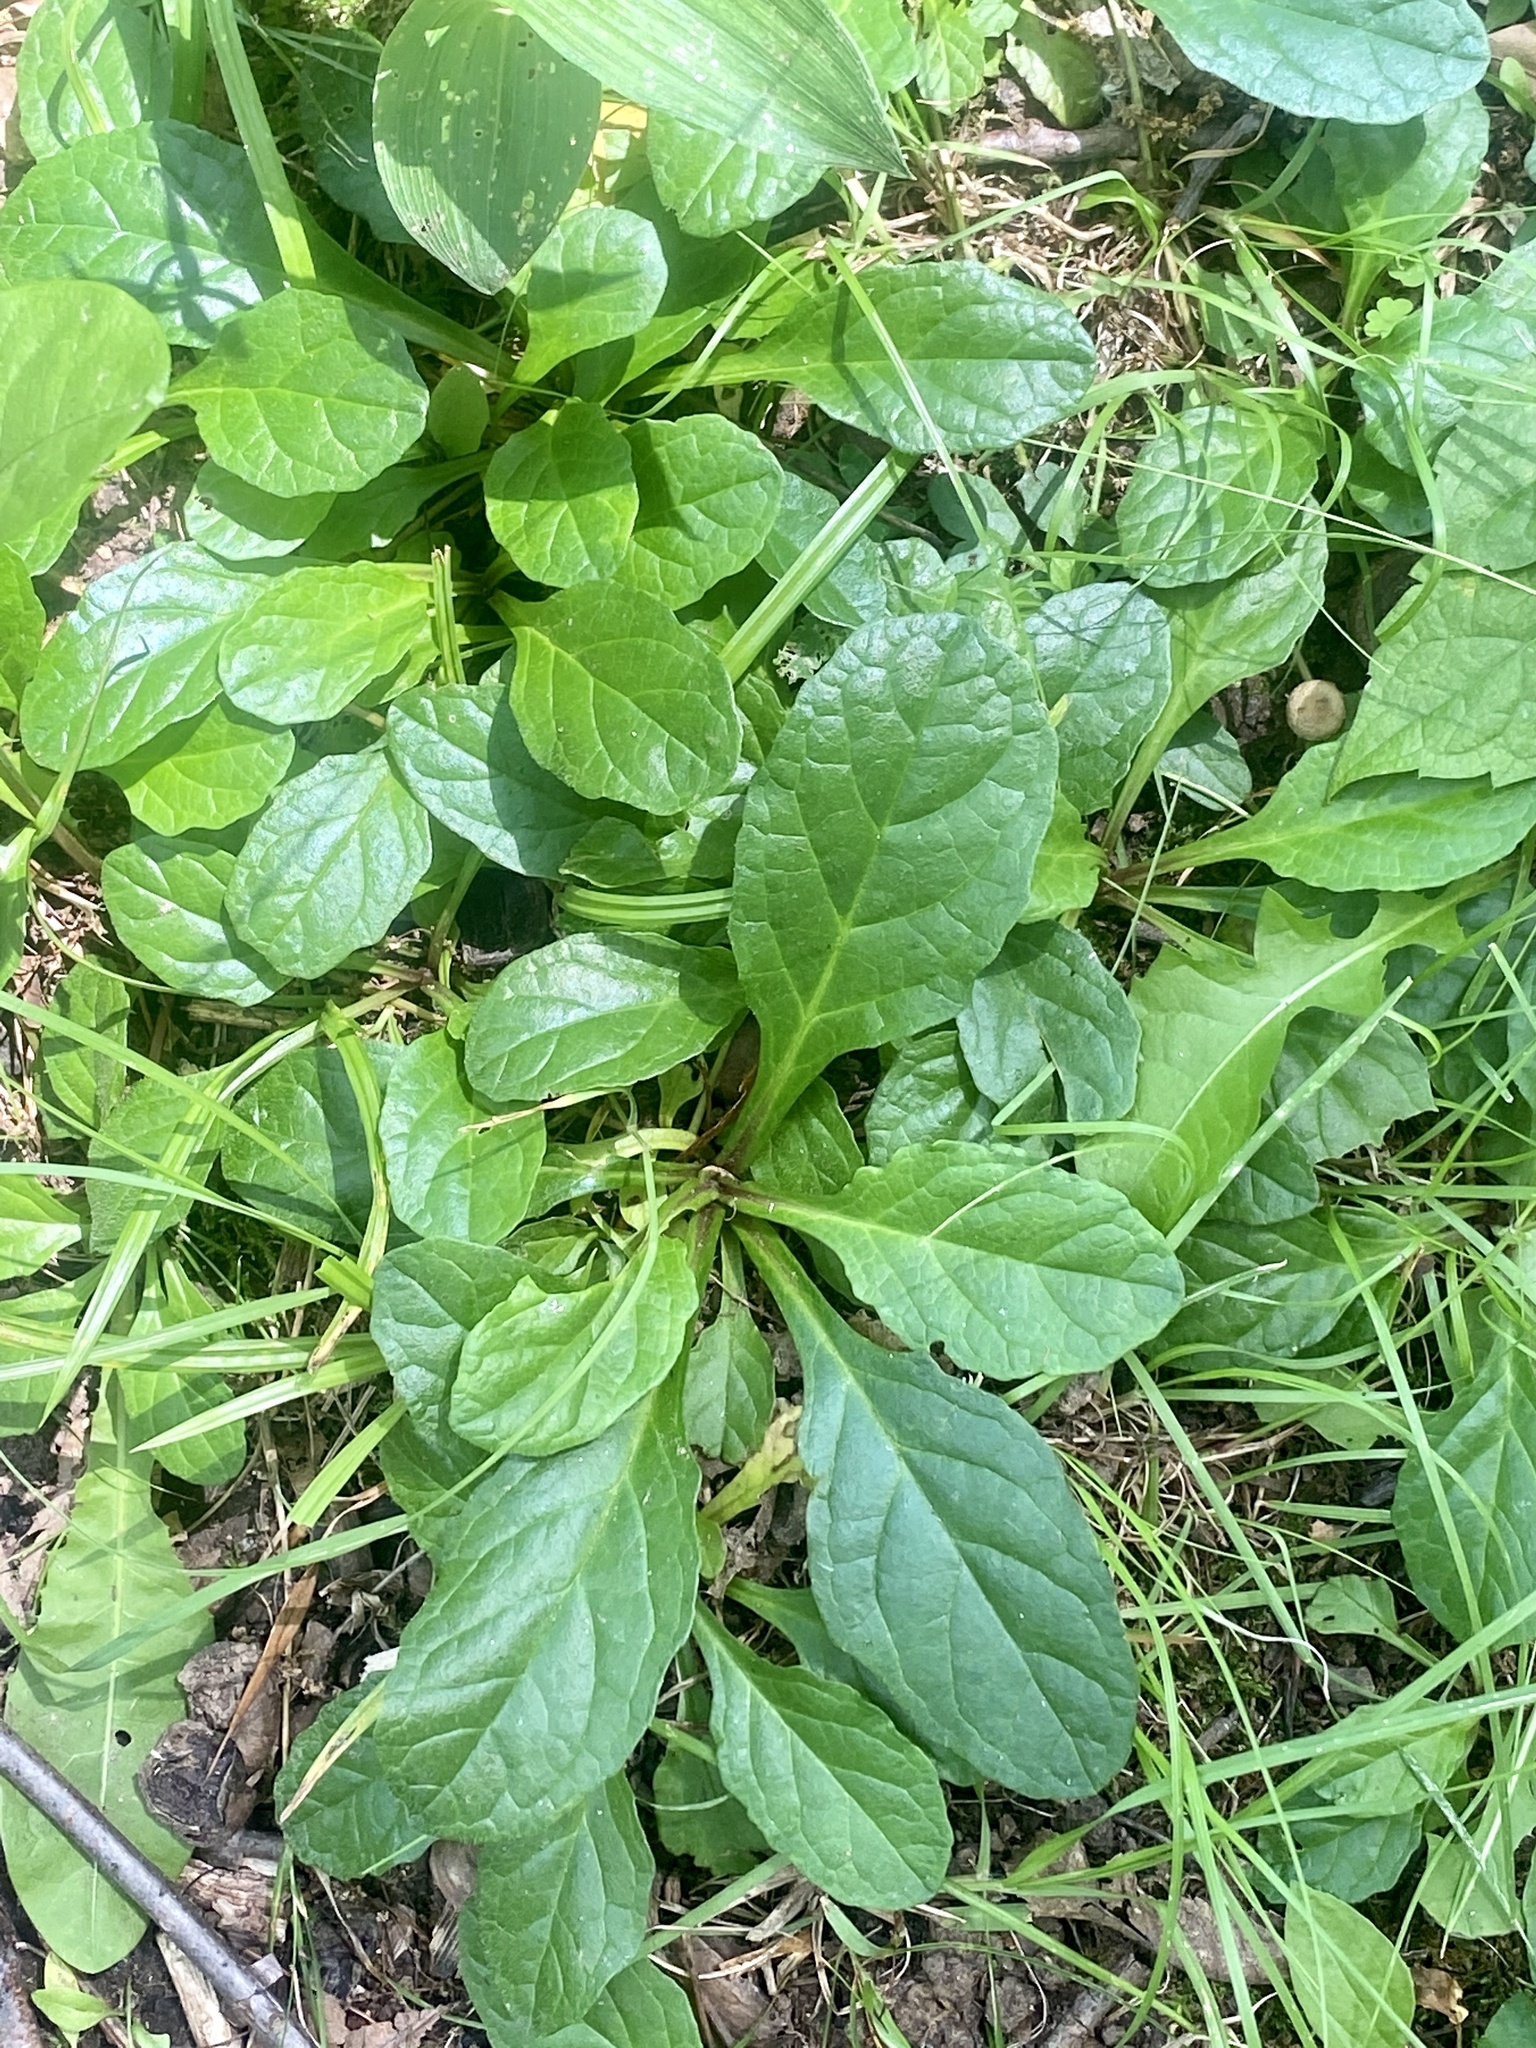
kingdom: Plantae
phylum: Tracheophyta
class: Magnoliopsida
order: Lamiales
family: Lamiaceae
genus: Ajuga
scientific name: Ajuga reptans
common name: Bugle
